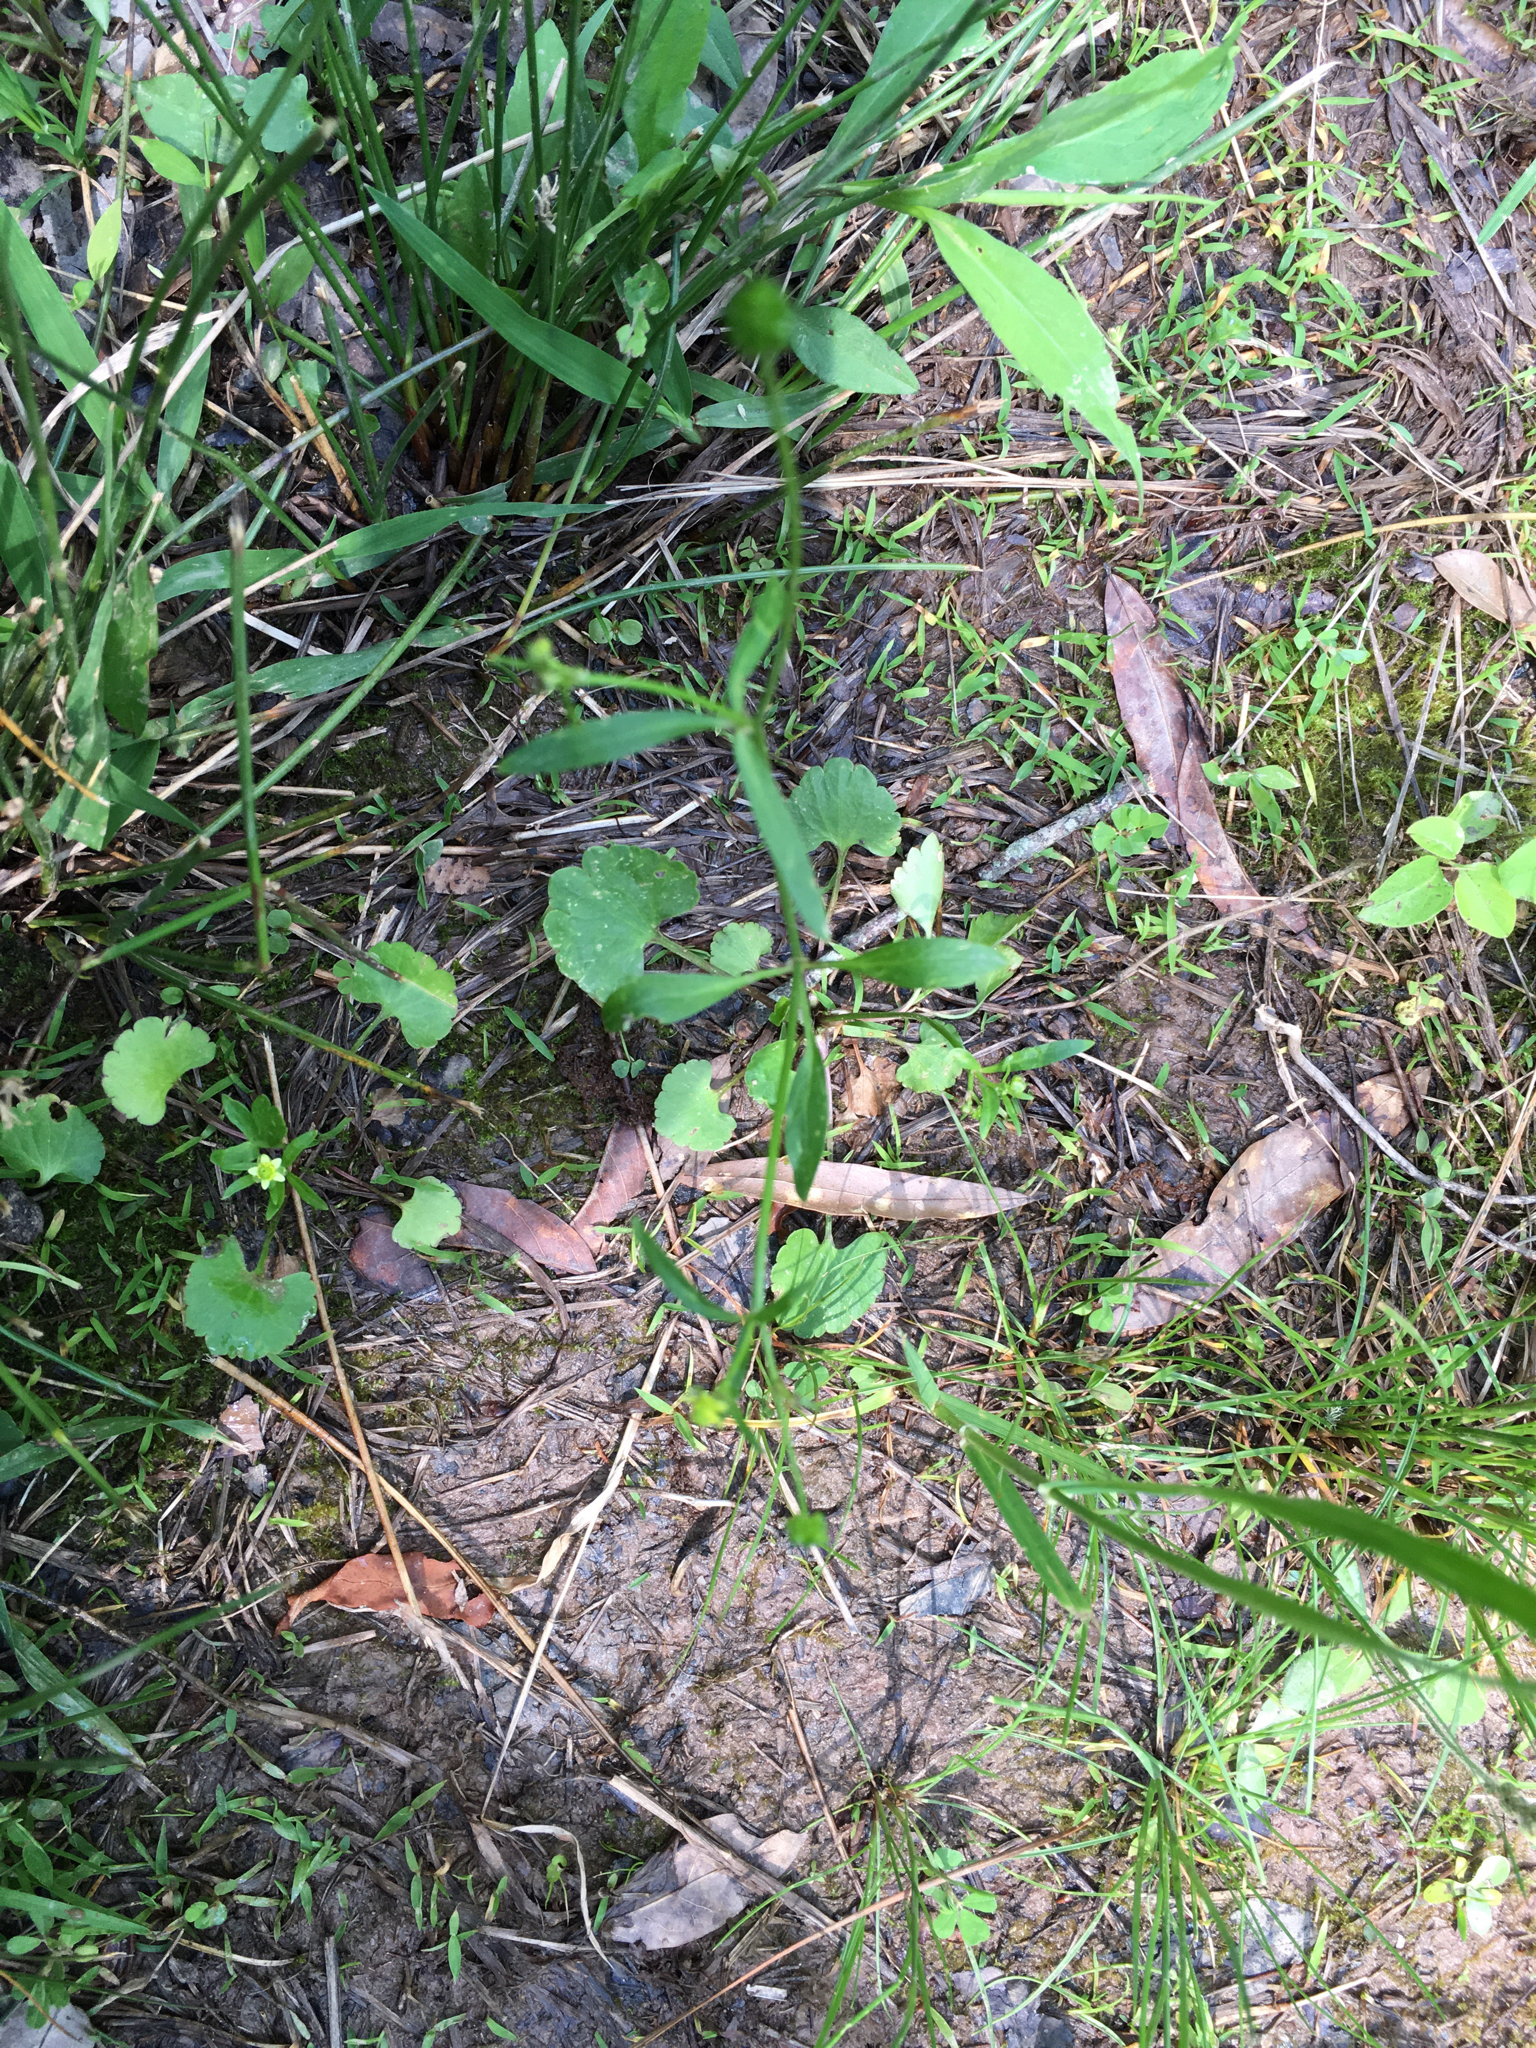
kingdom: Plantae
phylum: Tracheophyta
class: Magnoliopsida
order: Ranunculales
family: Ranunculaceae
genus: Ranunculus
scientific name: Ranunculus abortivus
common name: Early wood buttercup
